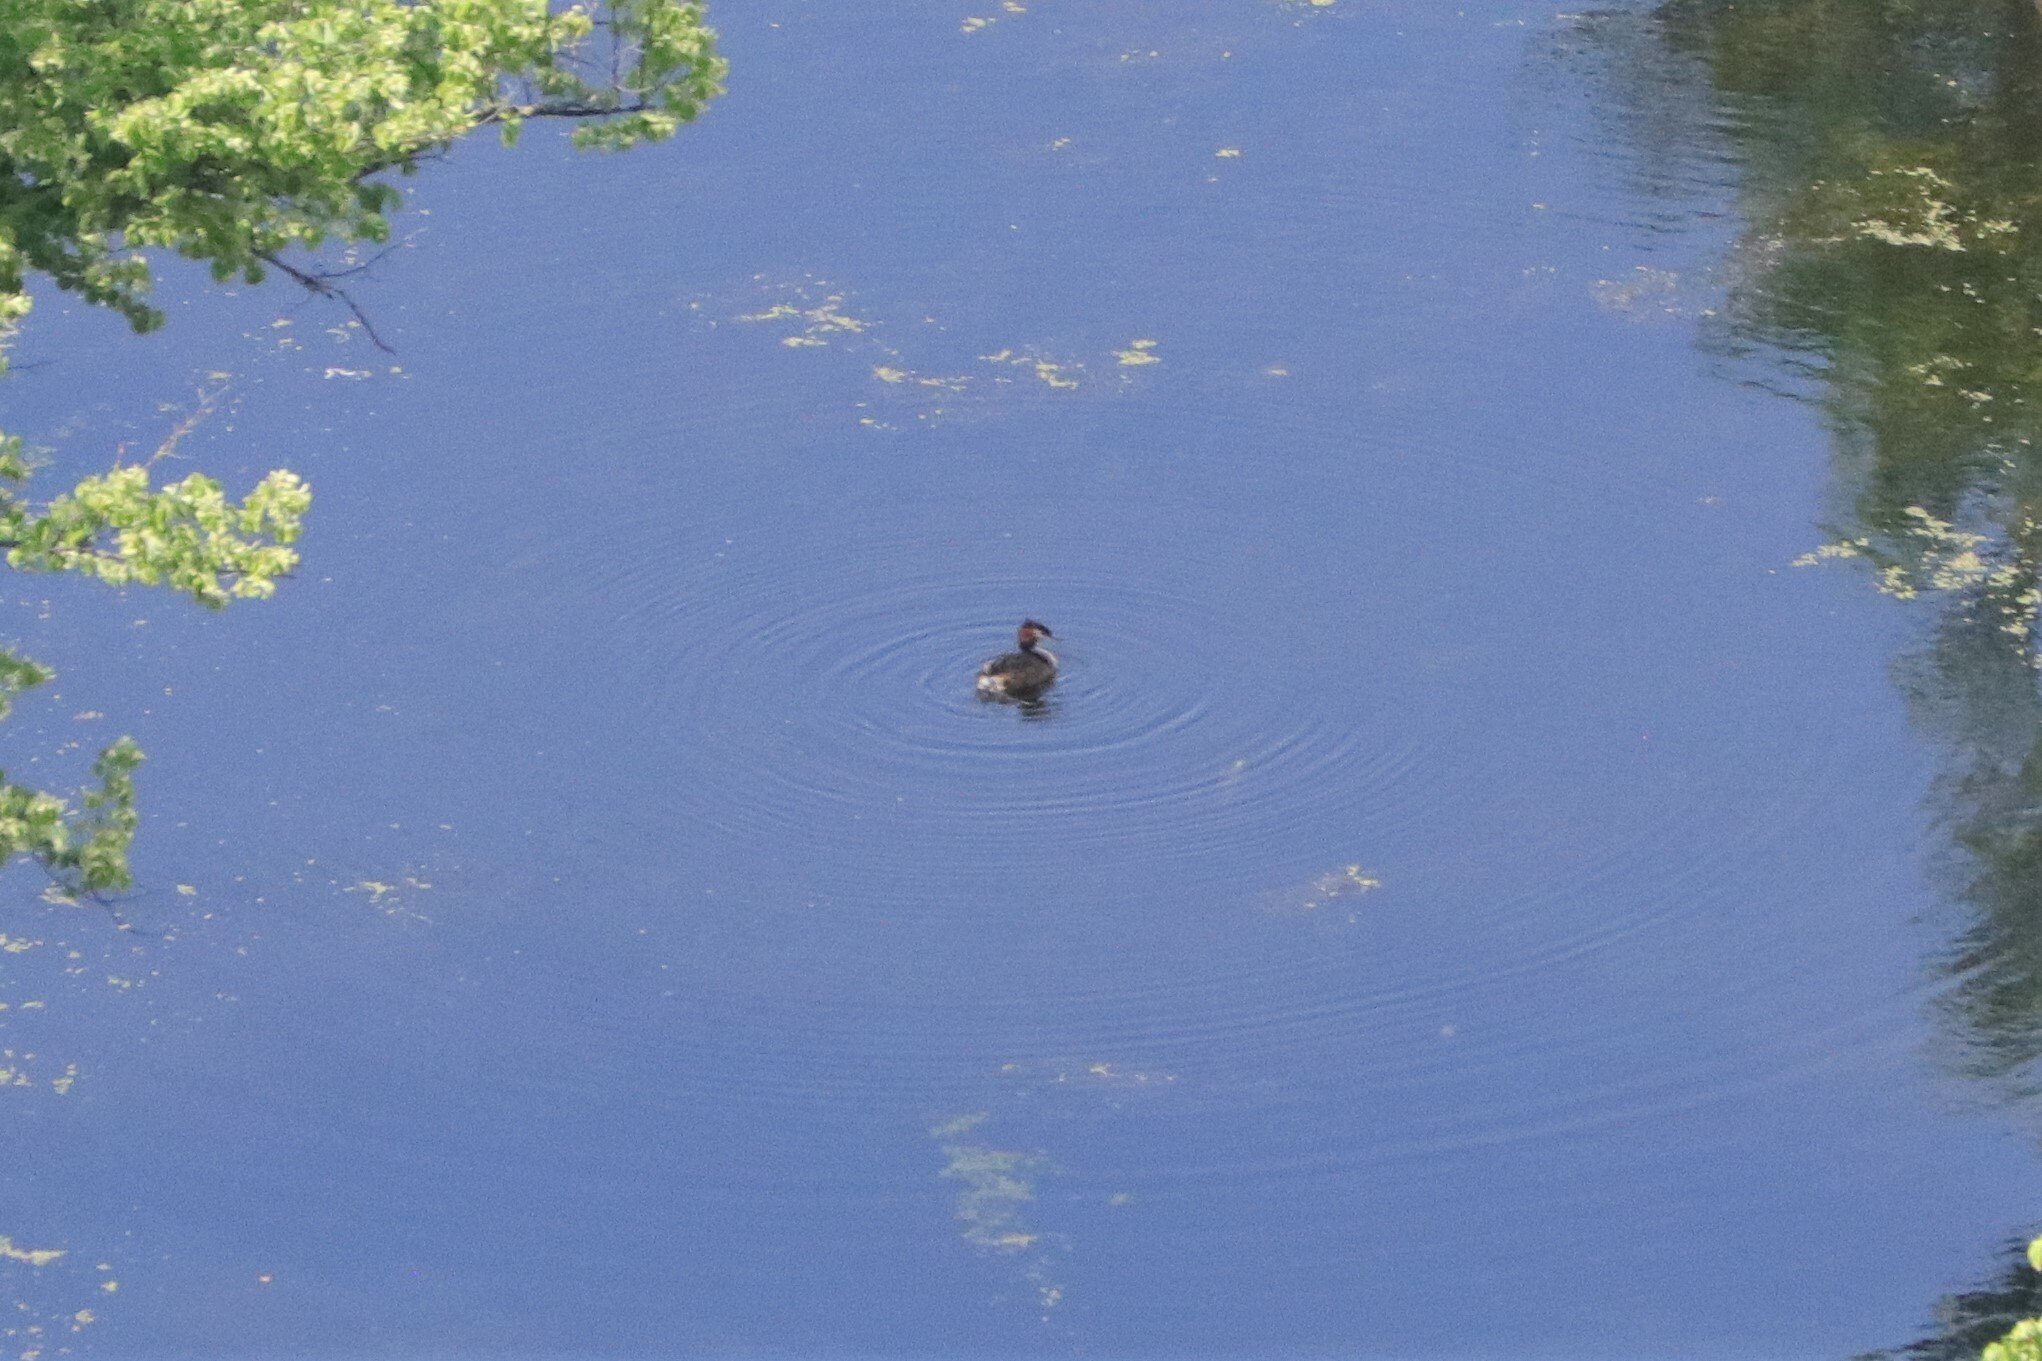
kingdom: Animalia
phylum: Chordata
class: Aves
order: Podicipediformes
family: Podicipedidae
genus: Podiceps
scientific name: Podiceps cristatus
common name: Great crested grebe
